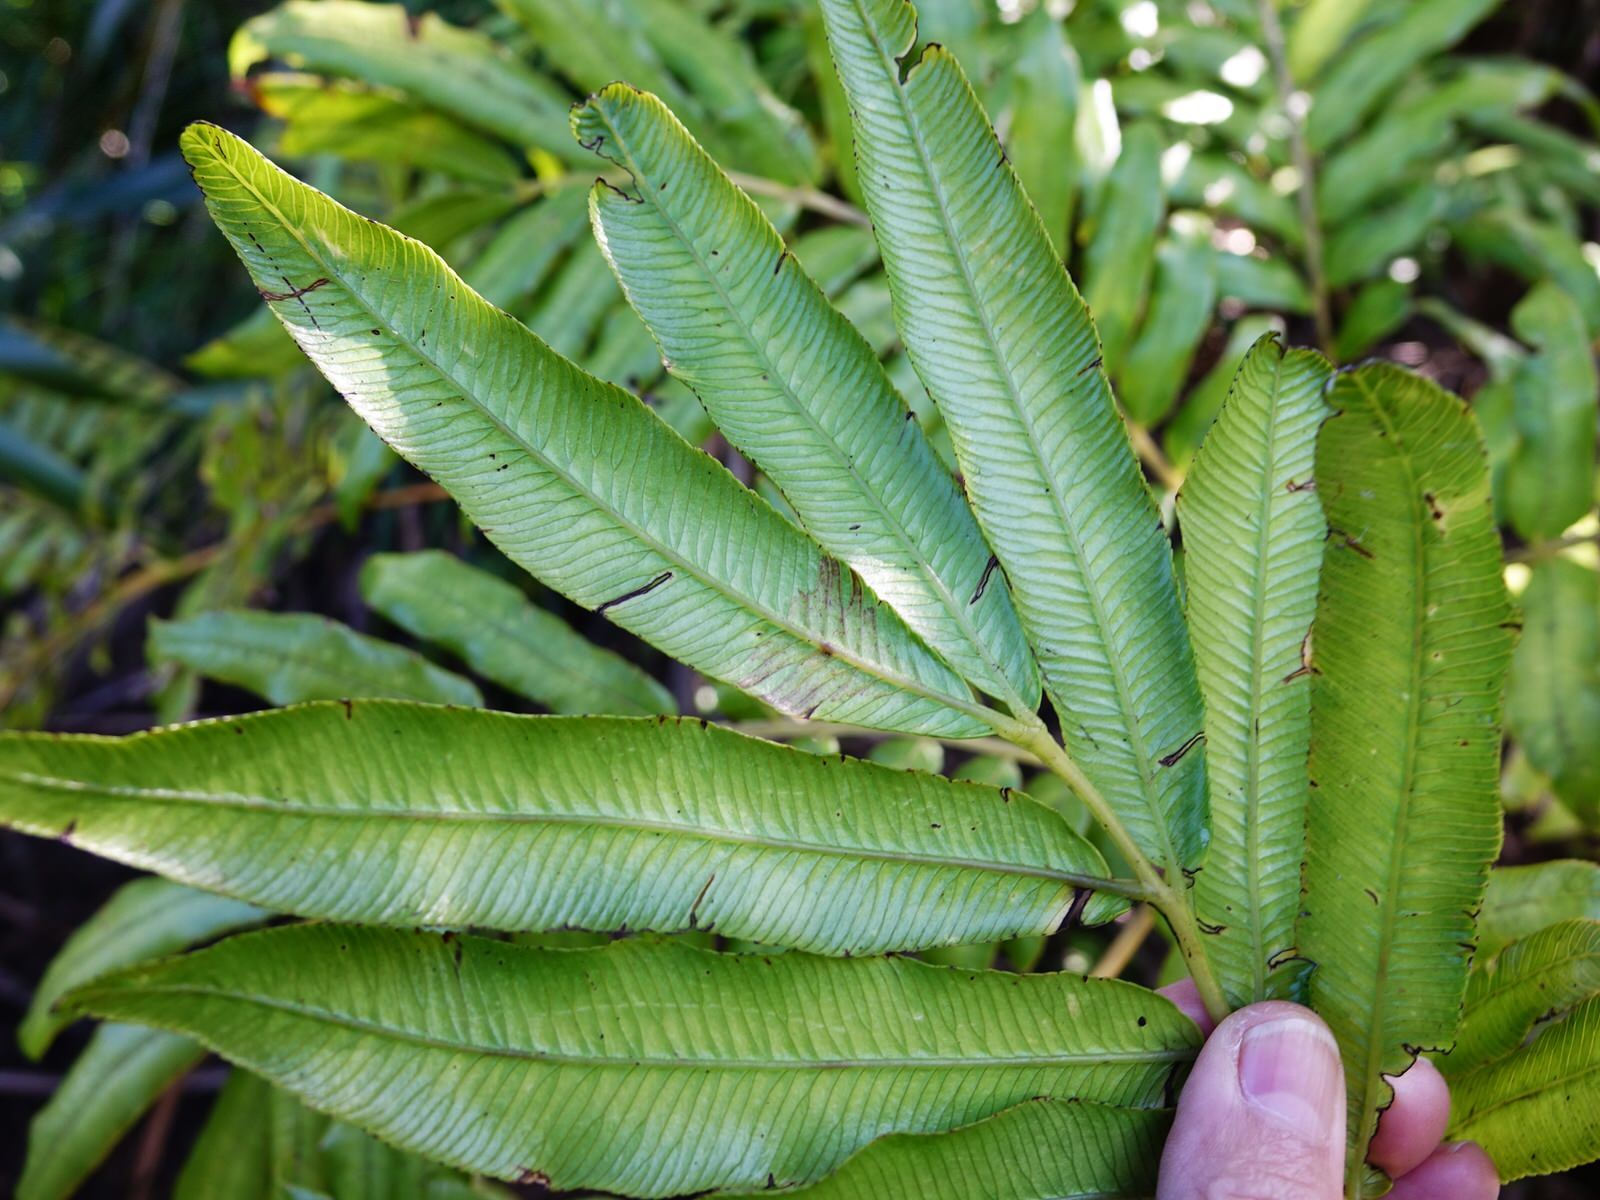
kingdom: Plantae
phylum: Tracheophyta
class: Polypodiopsida
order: Marattiales
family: Marattiaceae
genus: Ptisana
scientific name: Ptisana salicina
